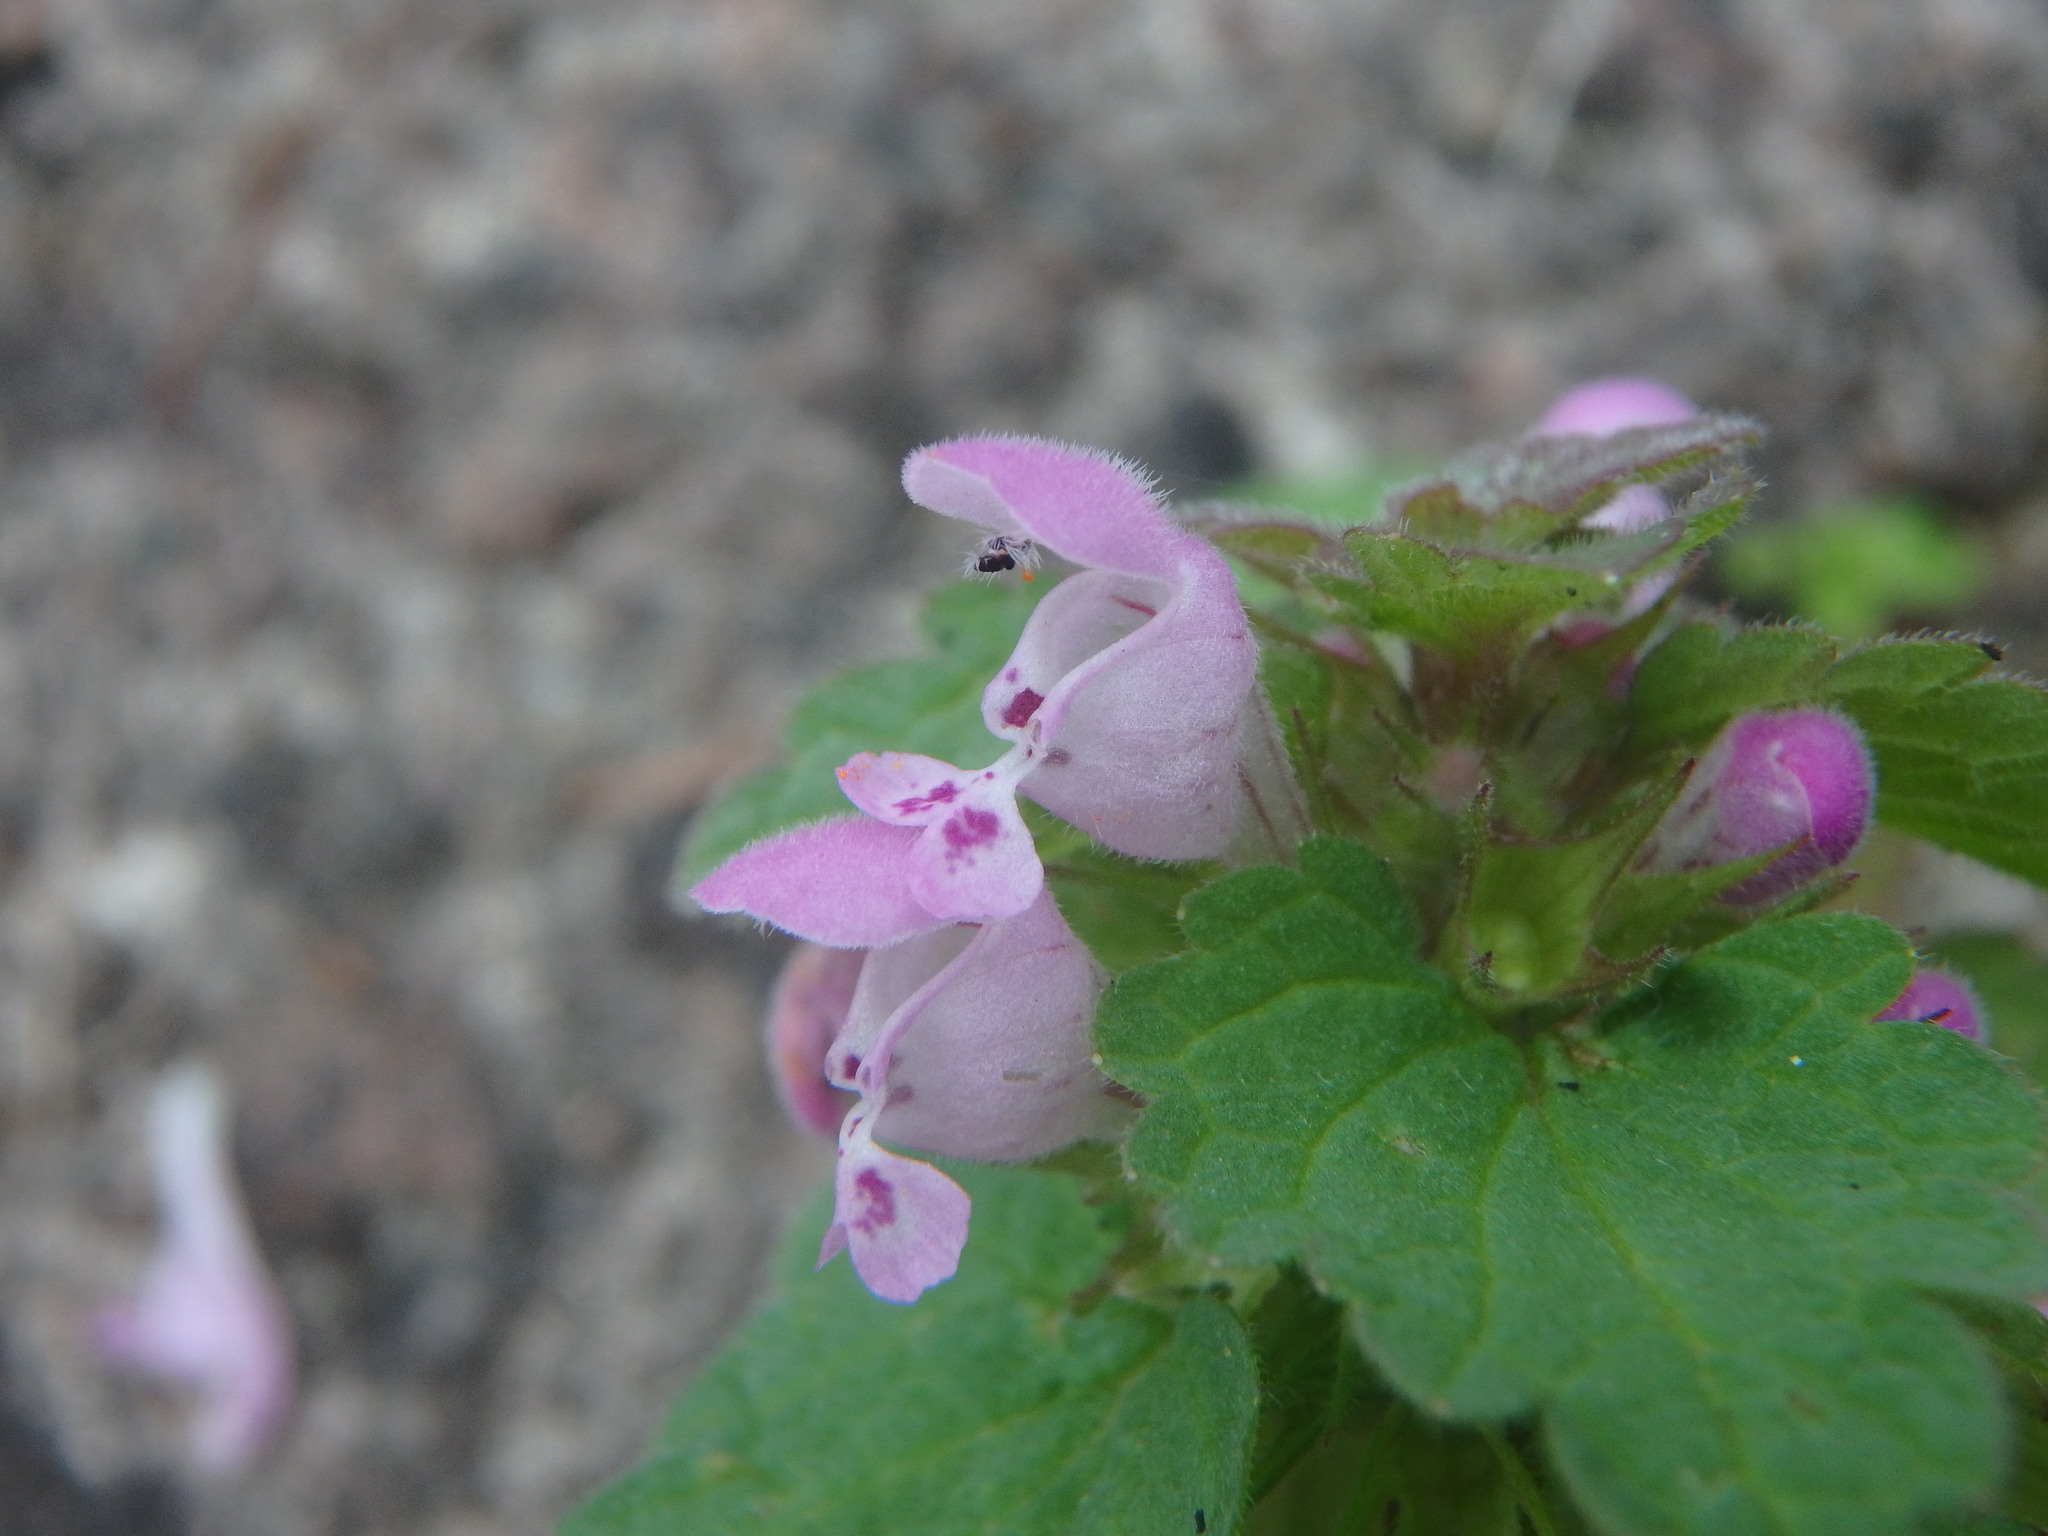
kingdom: Plantae
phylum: Tracheophyta
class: Magnoliopsida
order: Lamiales
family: Lamiaceae
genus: Lamium
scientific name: Lamium purpureum
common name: Red dead-nettle
